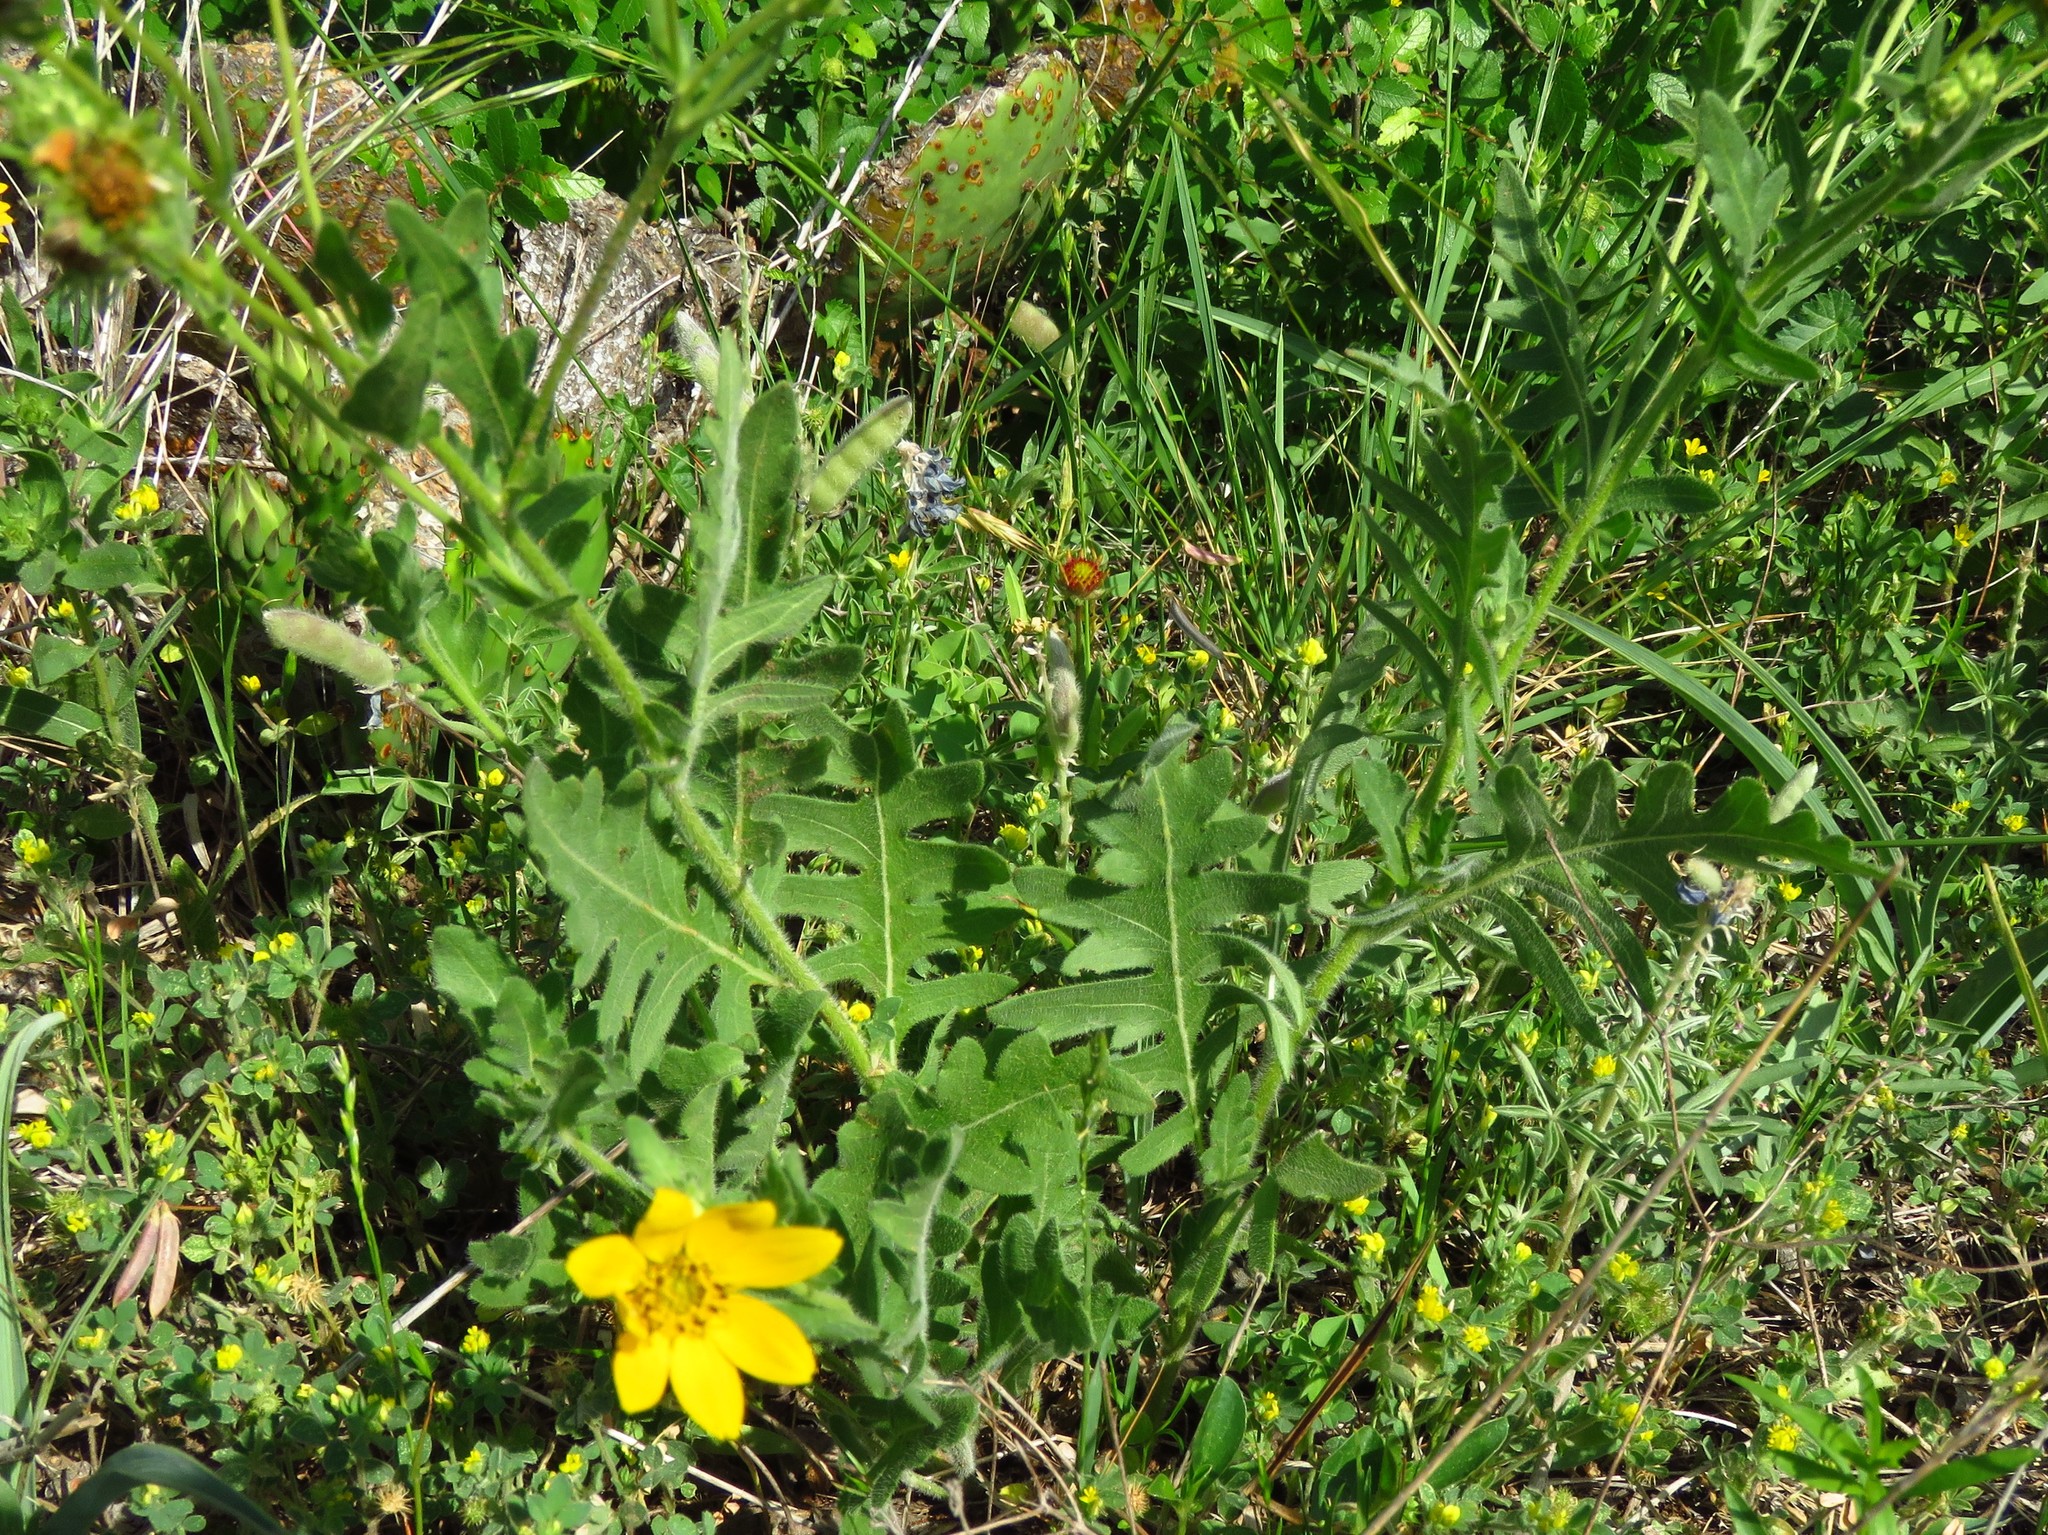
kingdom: Plantae
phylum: Tracheophyta
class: Magnoliopsida
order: Asterales
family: Asteraceae
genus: Engelmannia
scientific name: Engelmannia peristenia
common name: Engelmann's daisy
